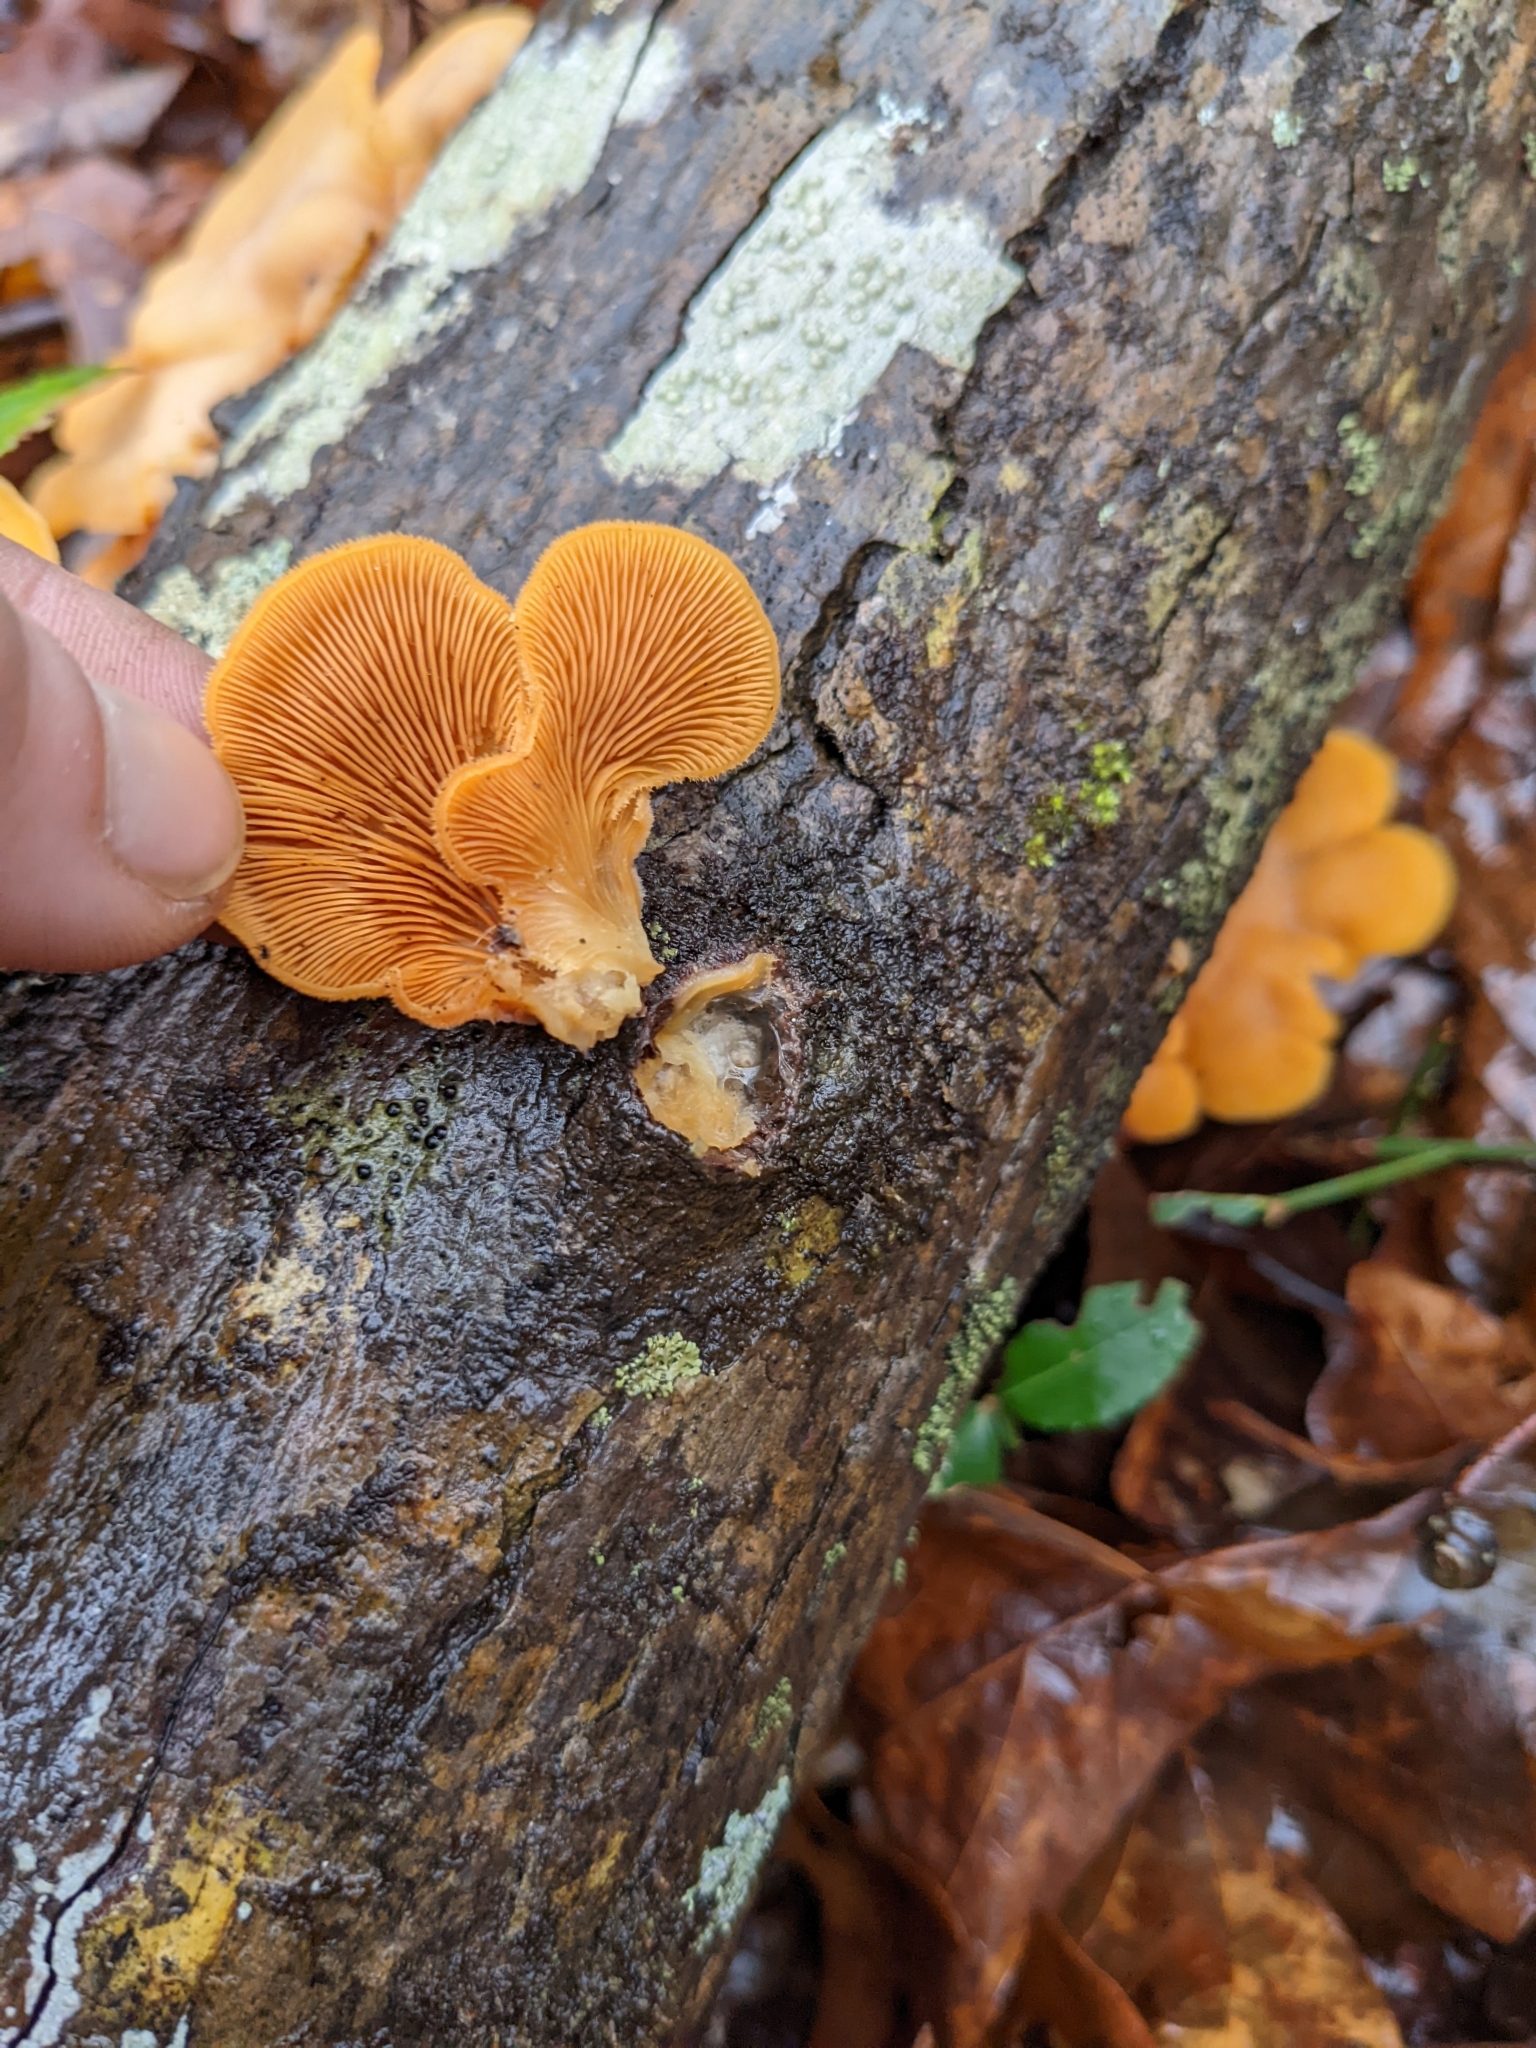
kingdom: Fungi
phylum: Basidiomycota
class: Agaricomycetes
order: Agaricales
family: Phyllotopsidaceae
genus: Phyllotopsis
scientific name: Phyllotopsis nidulans
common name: Orange mock oyster
